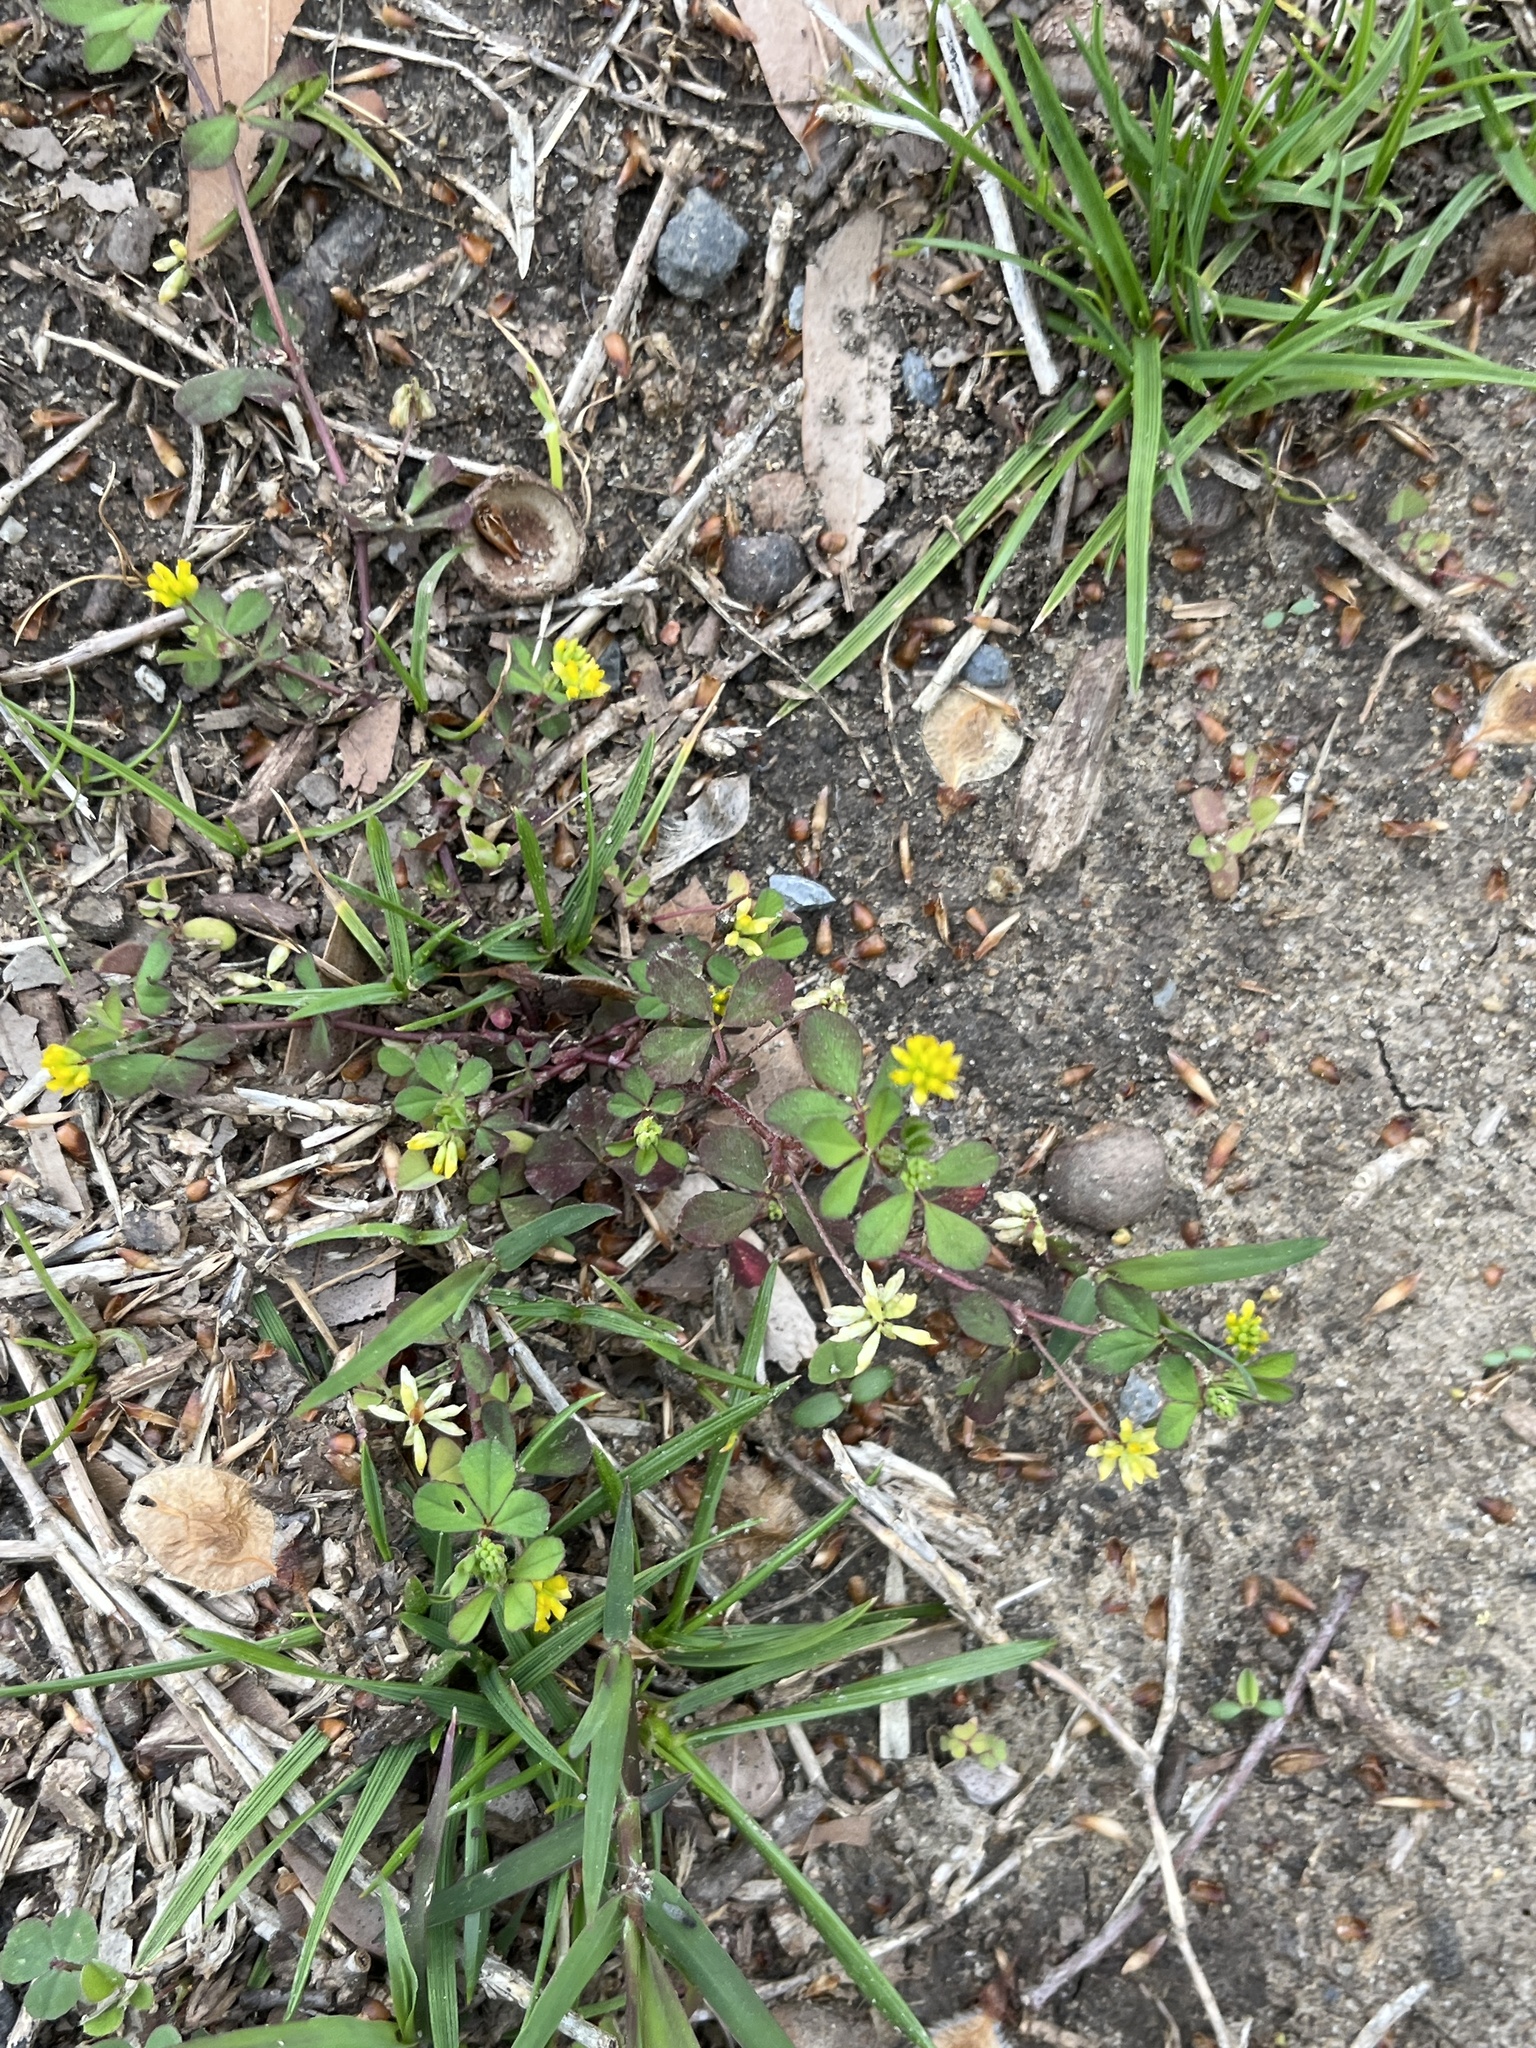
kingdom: Plantae
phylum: Tracheophyta
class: Magnoliopsida
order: Fabales
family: Fabaceae
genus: Trifolium
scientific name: Trifolium dubium
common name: Suckling clover
